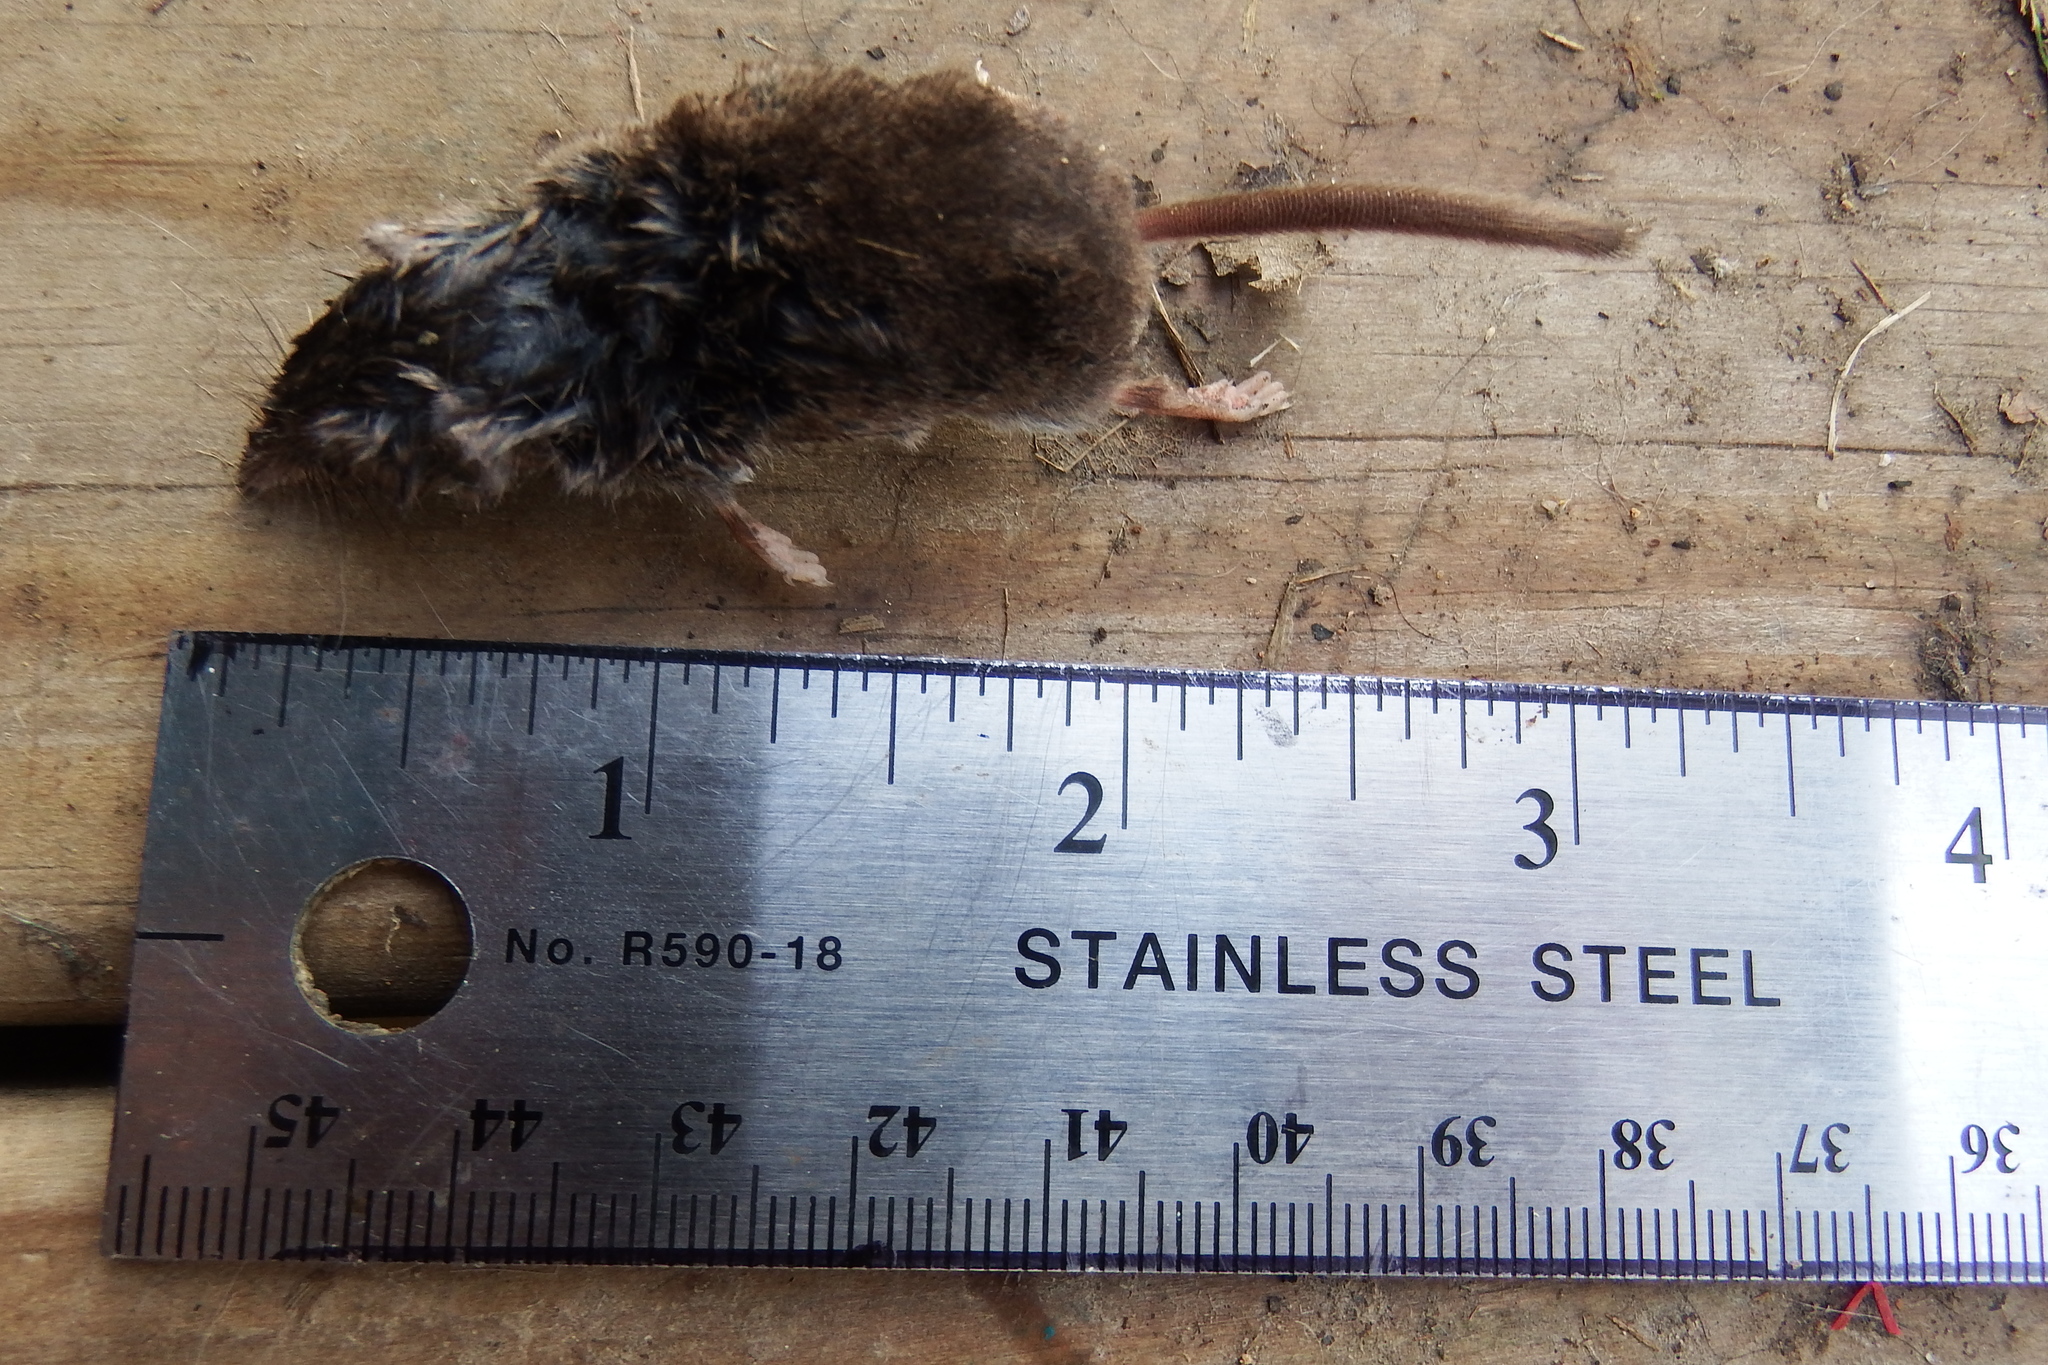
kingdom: Animalia
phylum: Chordata
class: Mammalia
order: Soricomorpha
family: Soricidae
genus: Sorex
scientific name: Sorex hoyi
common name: American pygmy shrew
